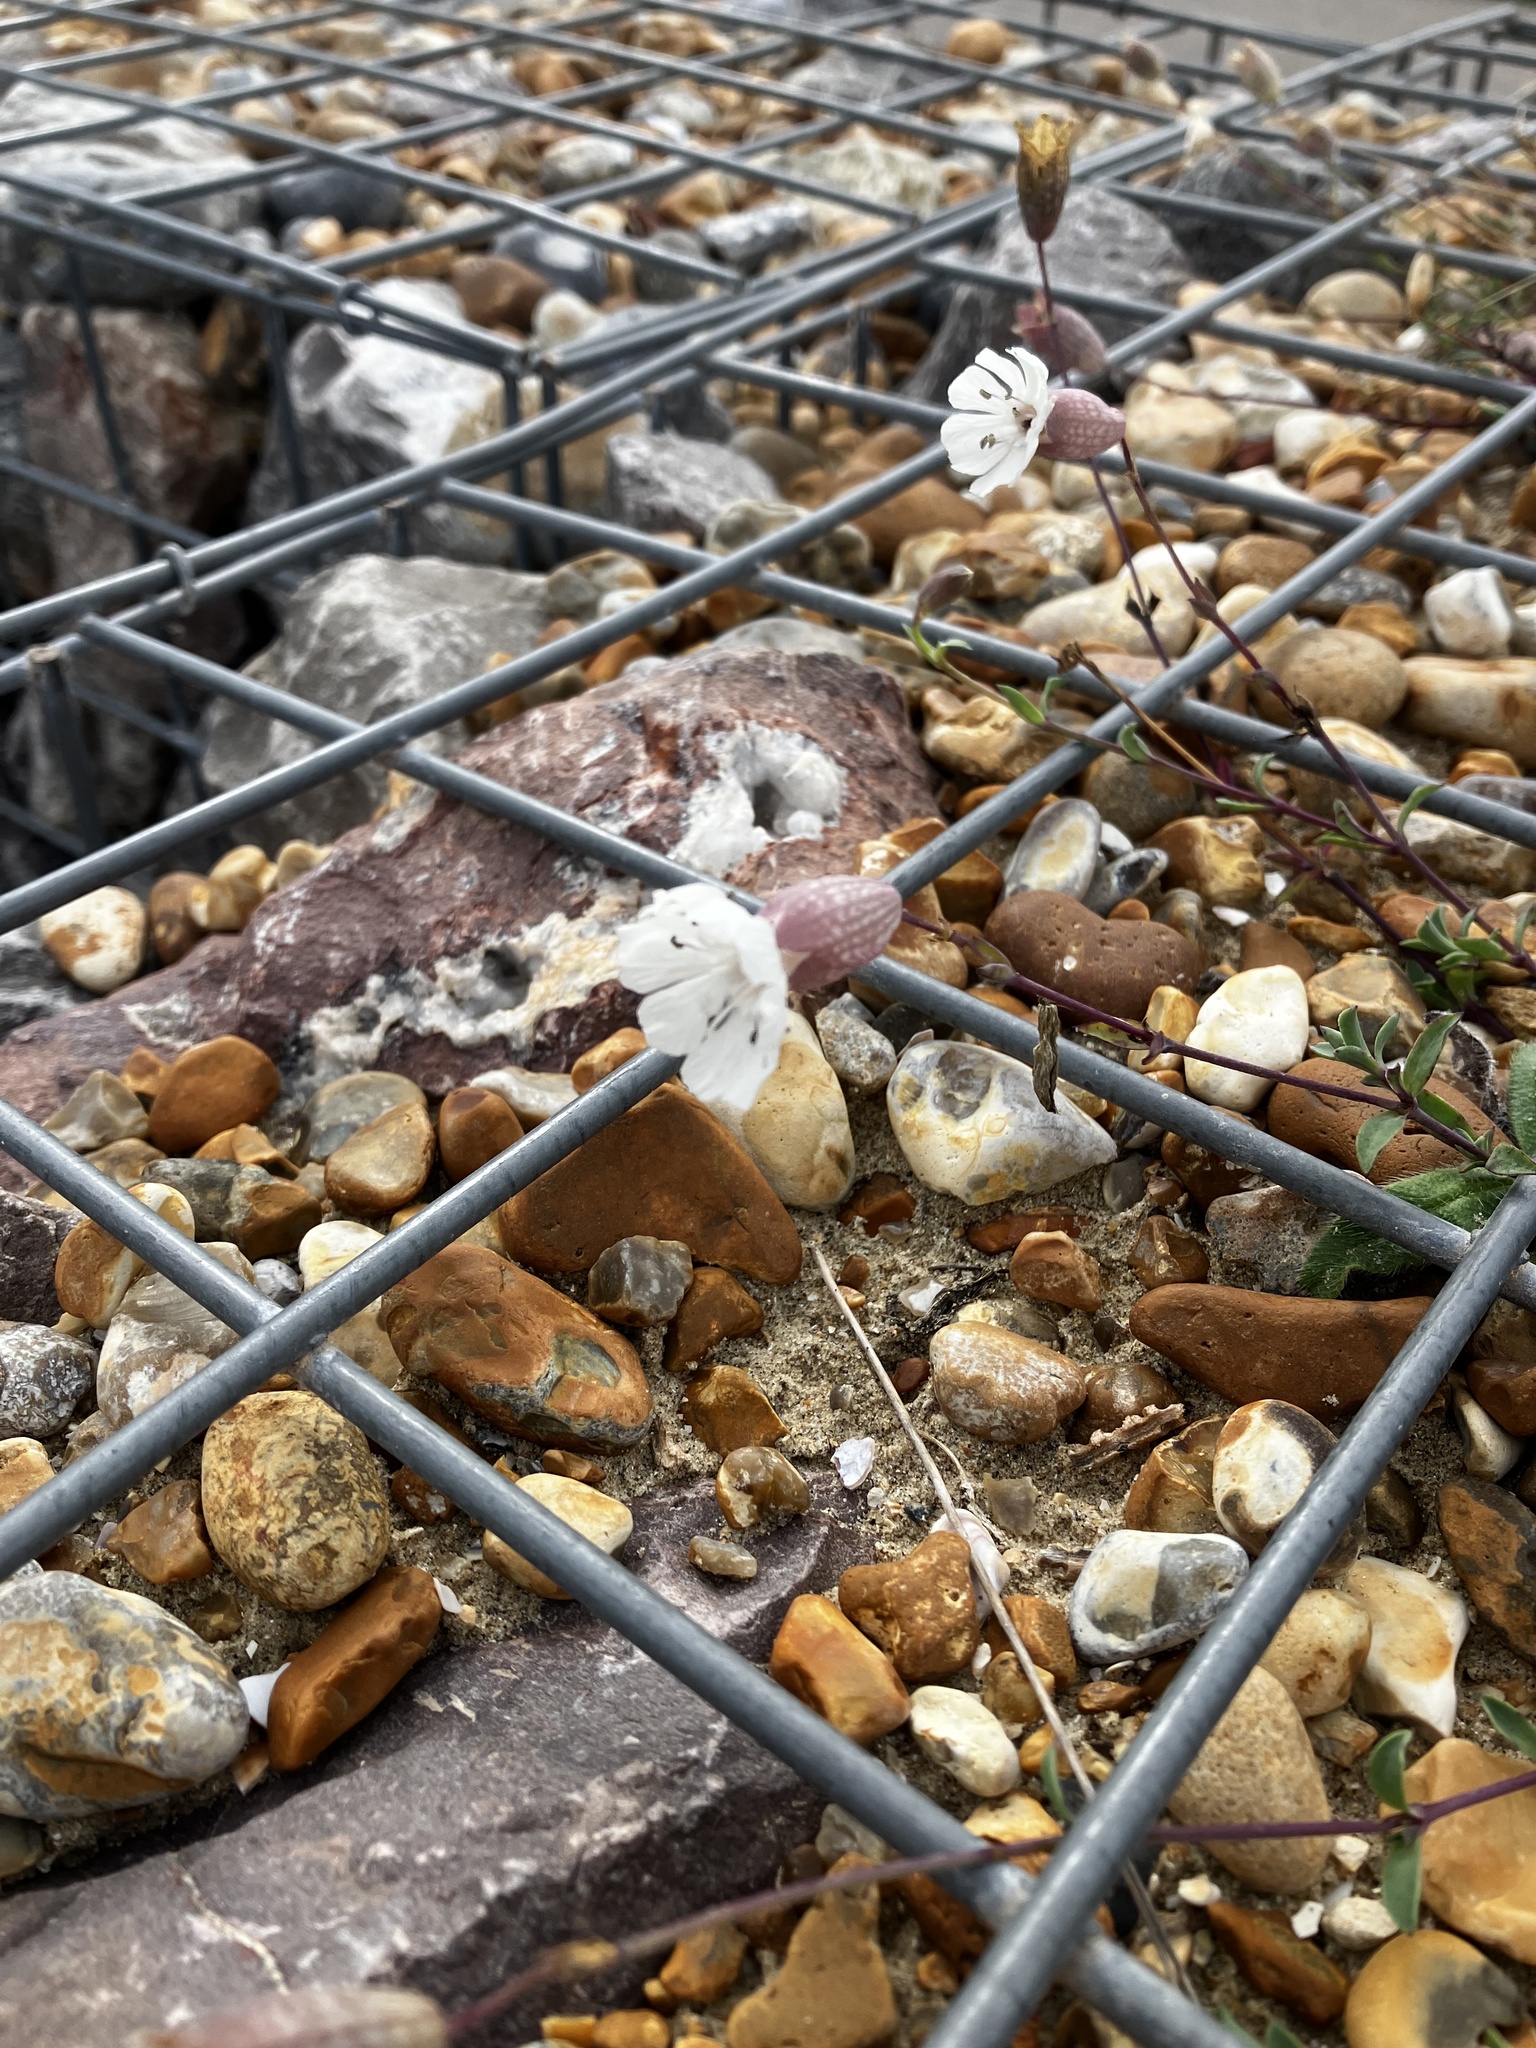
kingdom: Plantae
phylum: Tracheophyta
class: Magnoliopsida
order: Caryophyllales
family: Caryophyllaceae
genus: Silene
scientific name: Silene uniflora
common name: Sea campion
